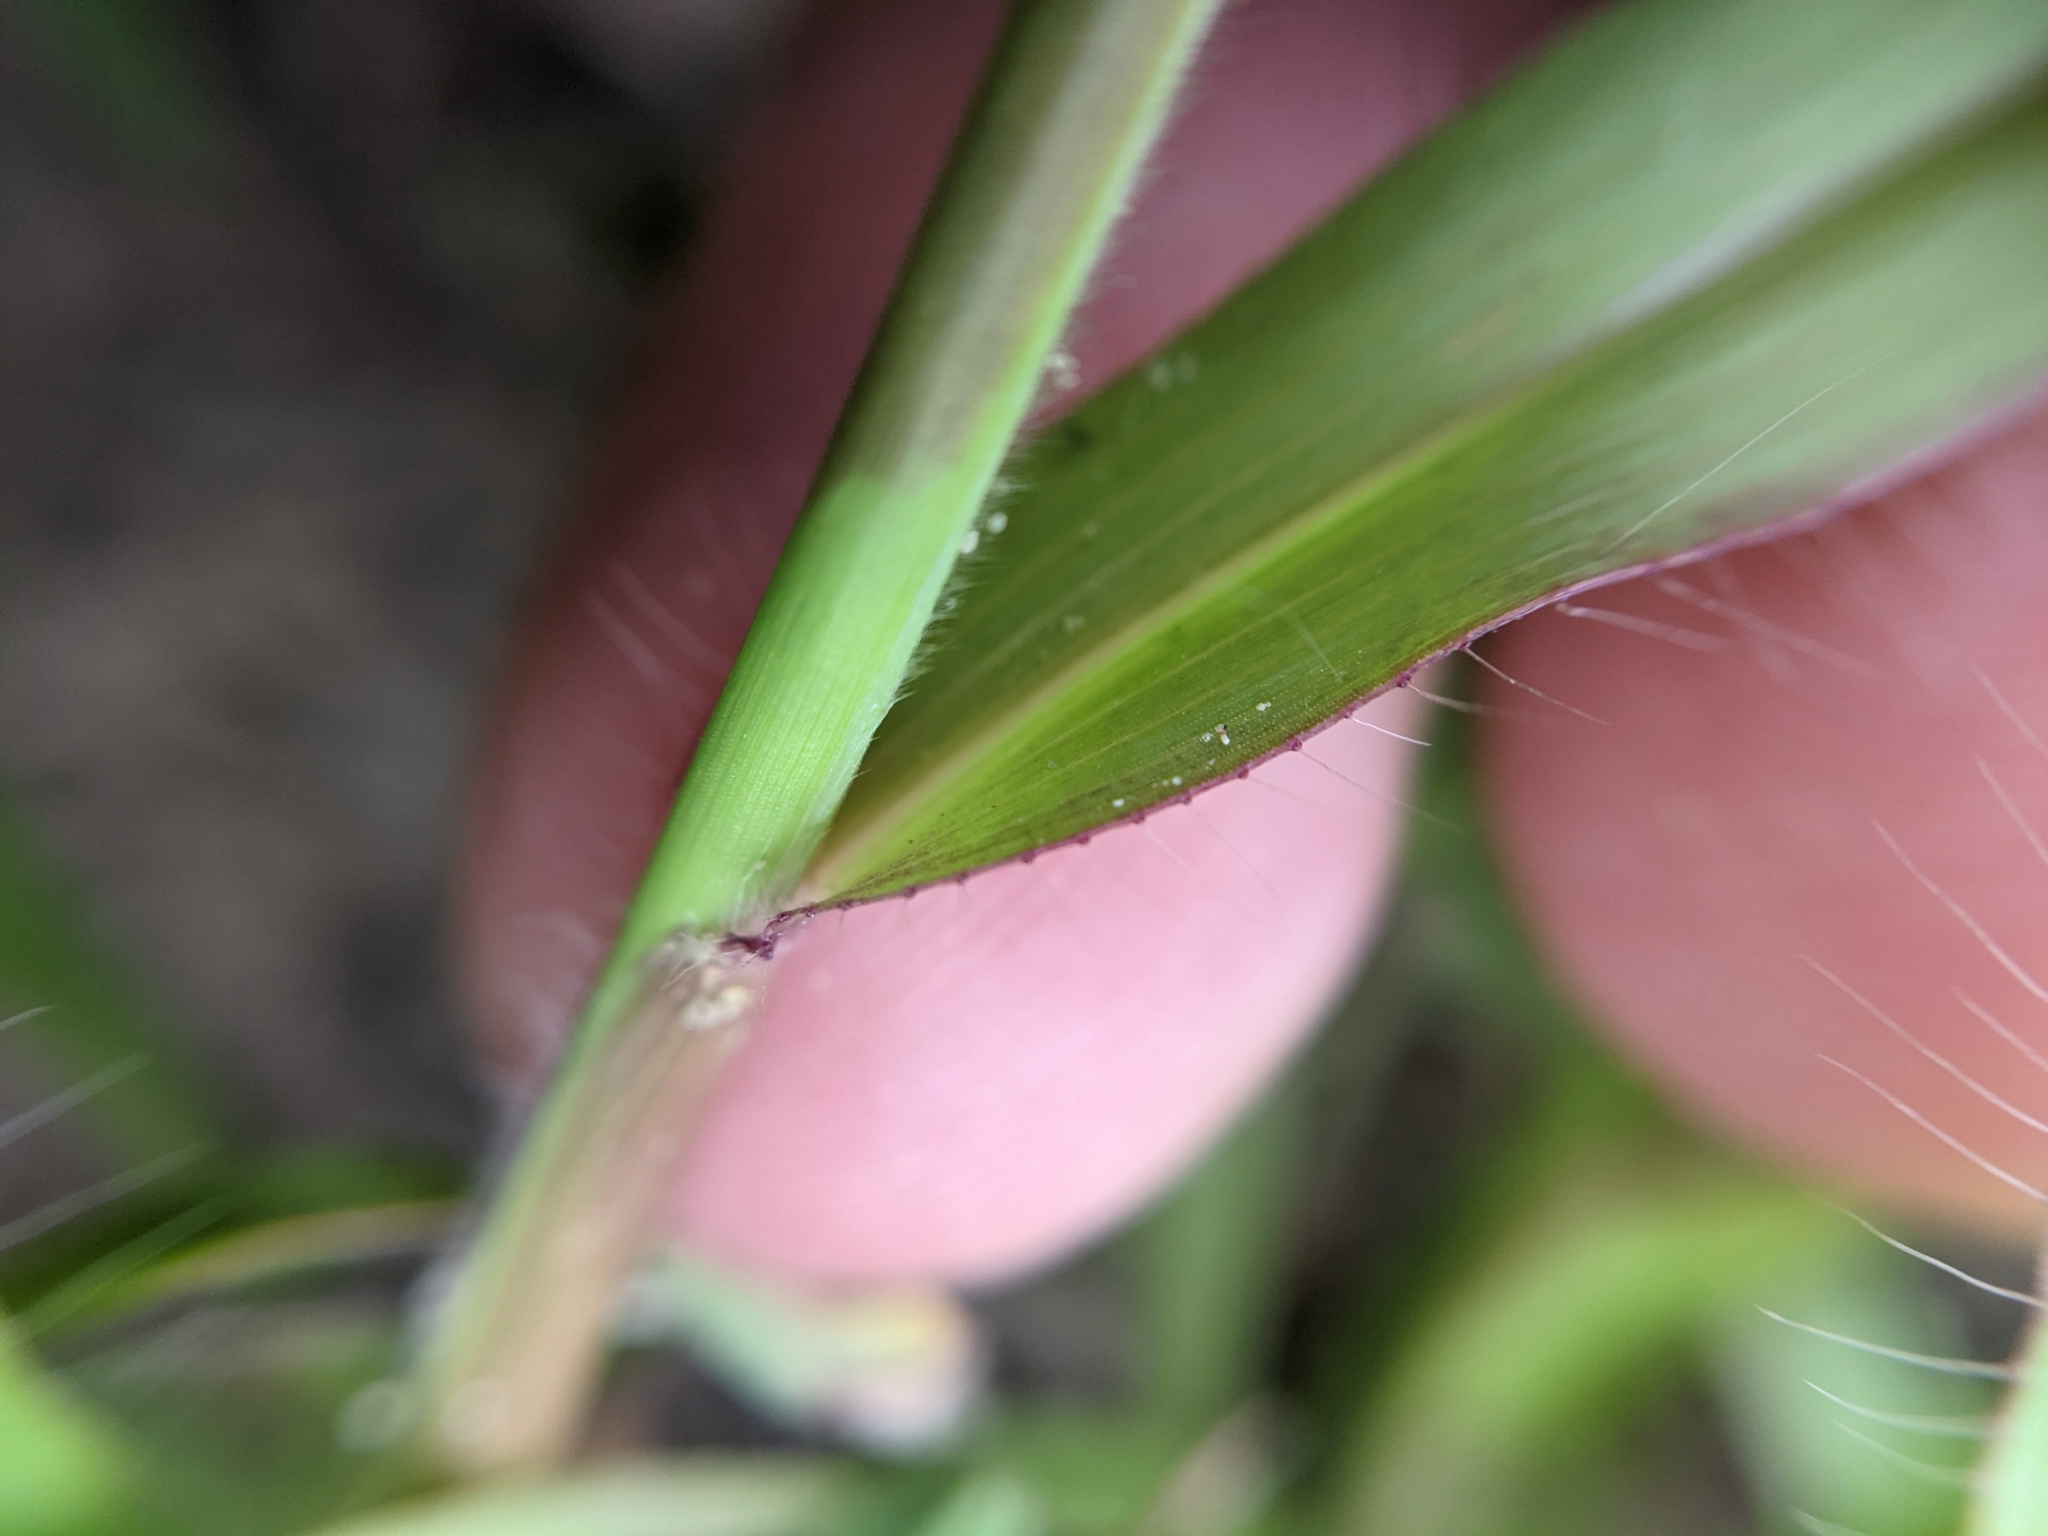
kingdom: Plantae
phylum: Tracheophyta
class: Liliopsida
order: Poales
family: Poaceae
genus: Paspalum
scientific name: Paspalum setaceum
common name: Slender paspalum
